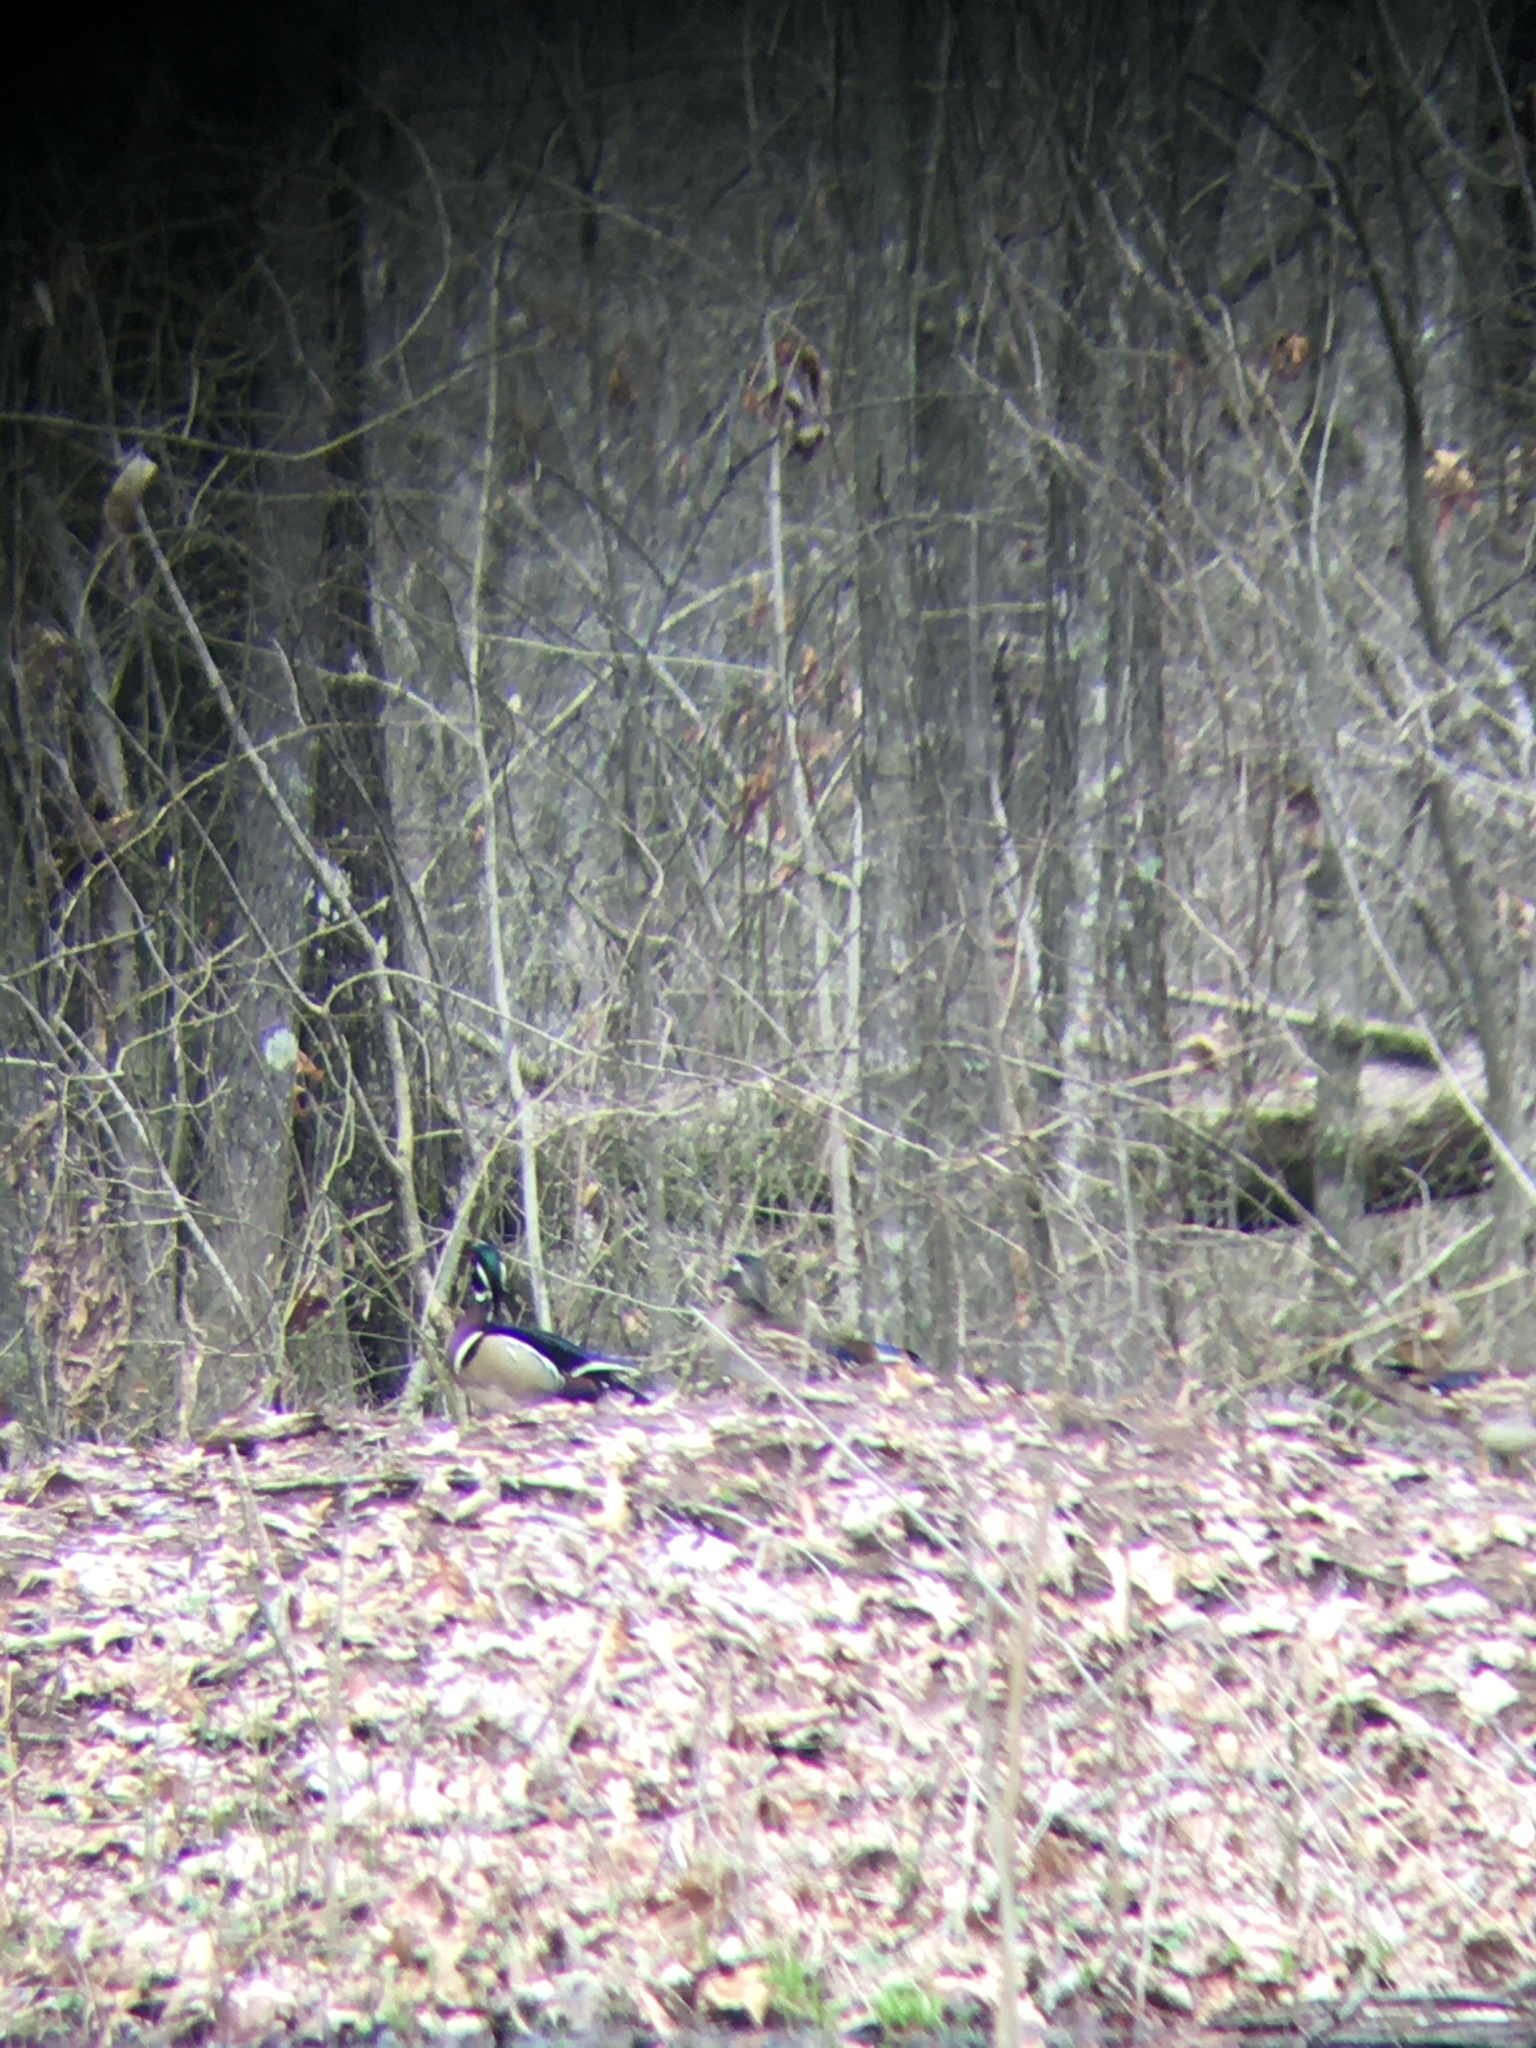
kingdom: Animalia
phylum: Chordata
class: Aves
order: Anseriformes
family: Anatidae
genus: Aix
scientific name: Aix sponsa
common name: Wood duck
